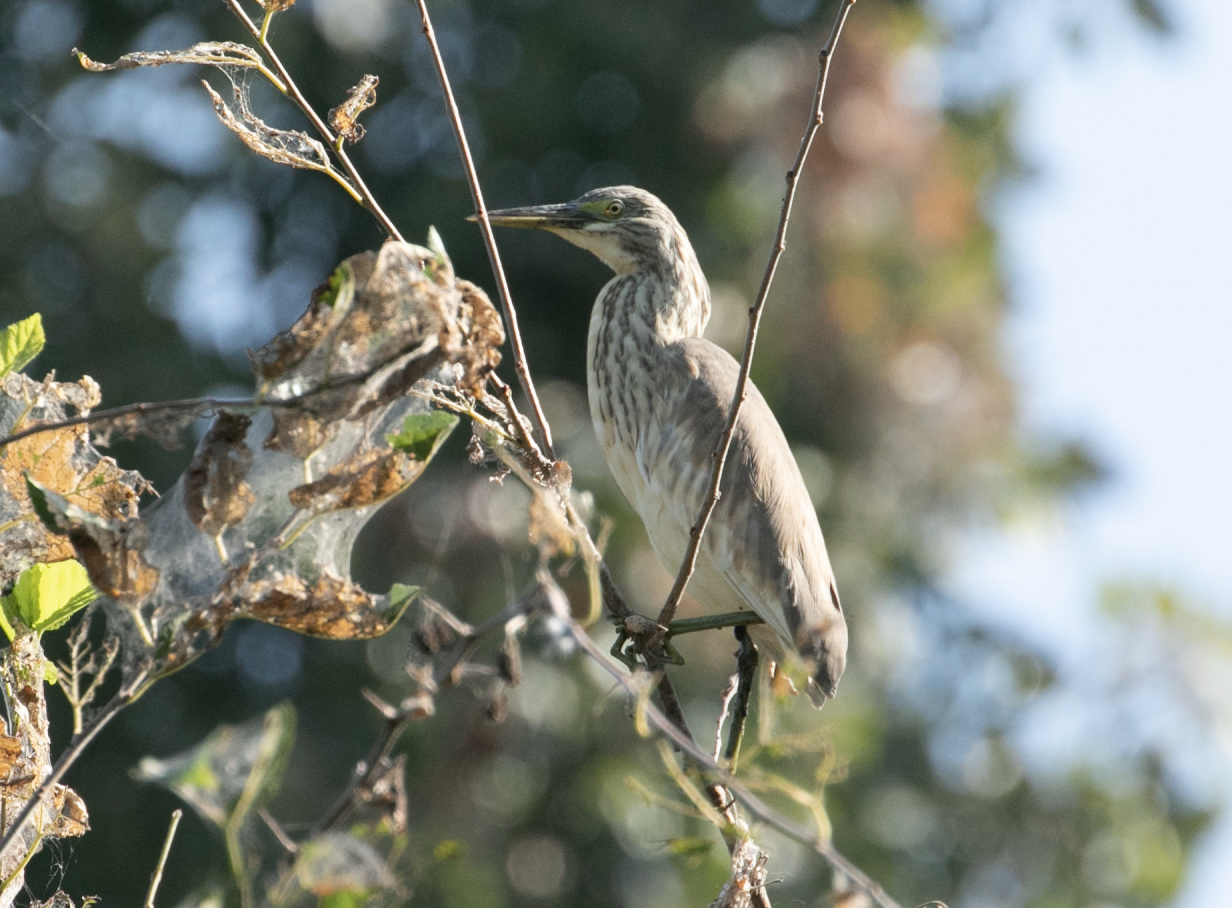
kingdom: Animalia
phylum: Chordata
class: Aves
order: Pelecaniformes
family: Ardeidae
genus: Ardeola
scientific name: Ardeola ralloides
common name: Squacco heron
